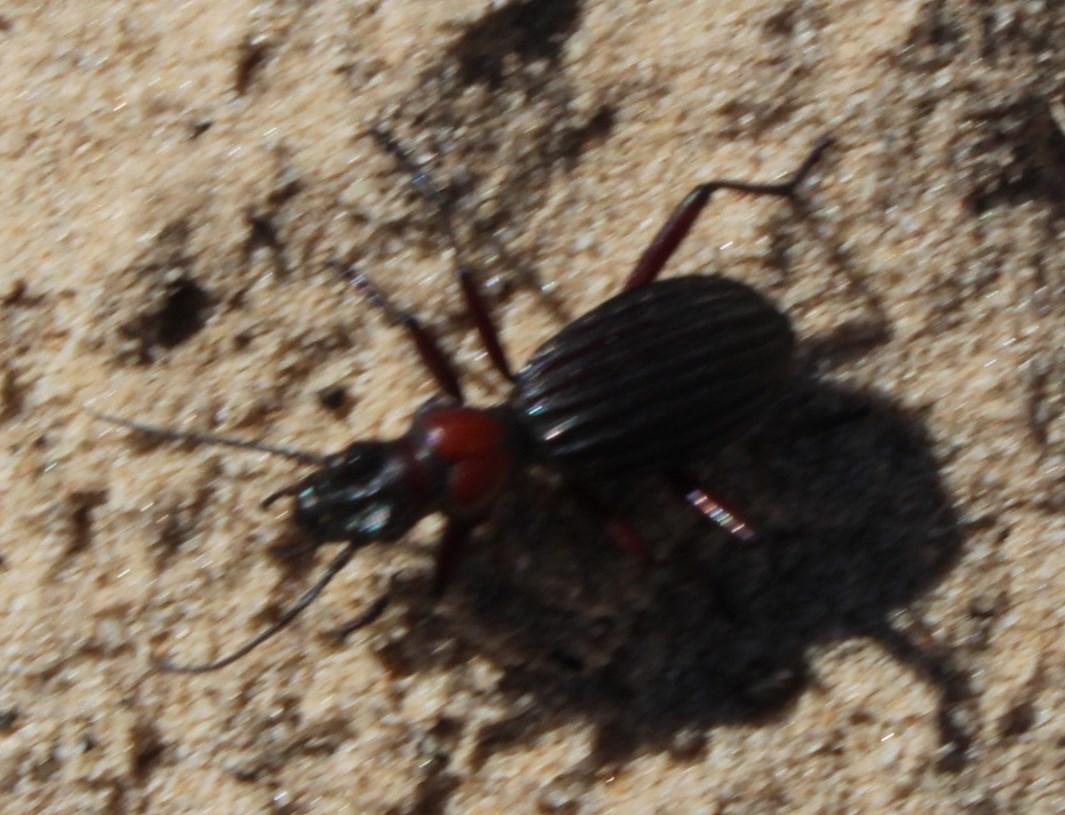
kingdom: Animalia
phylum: Arthropoda
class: Insecta
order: Coleoptera
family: Carabidae
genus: Anthia
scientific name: Anthia decemguttata
